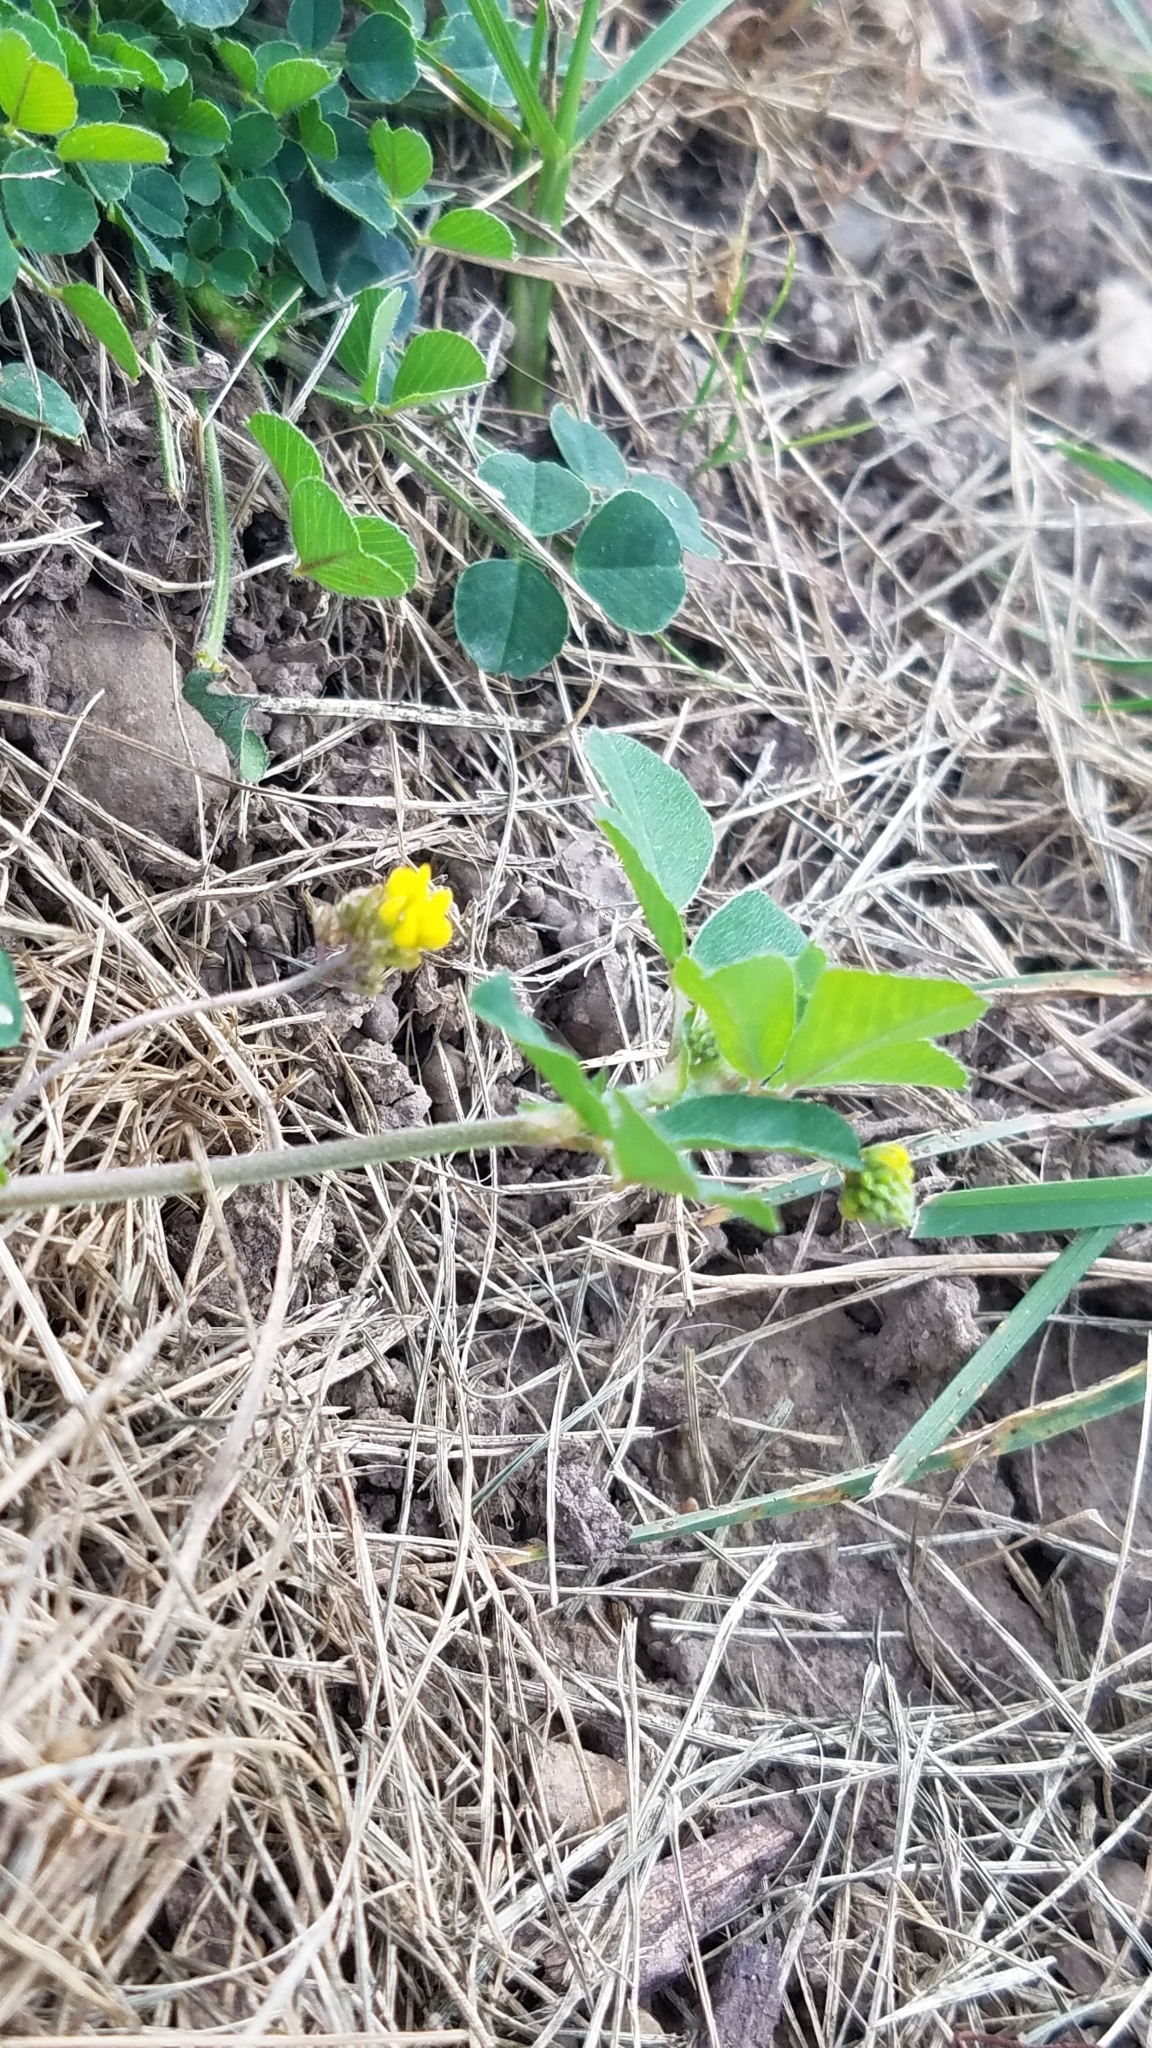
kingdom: Plantae
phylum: Tracheophyta
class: Magnoliopsida
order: Fabales
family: Fabaceae
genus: Medicago
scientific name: Medicago lupulina
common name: Black medick
